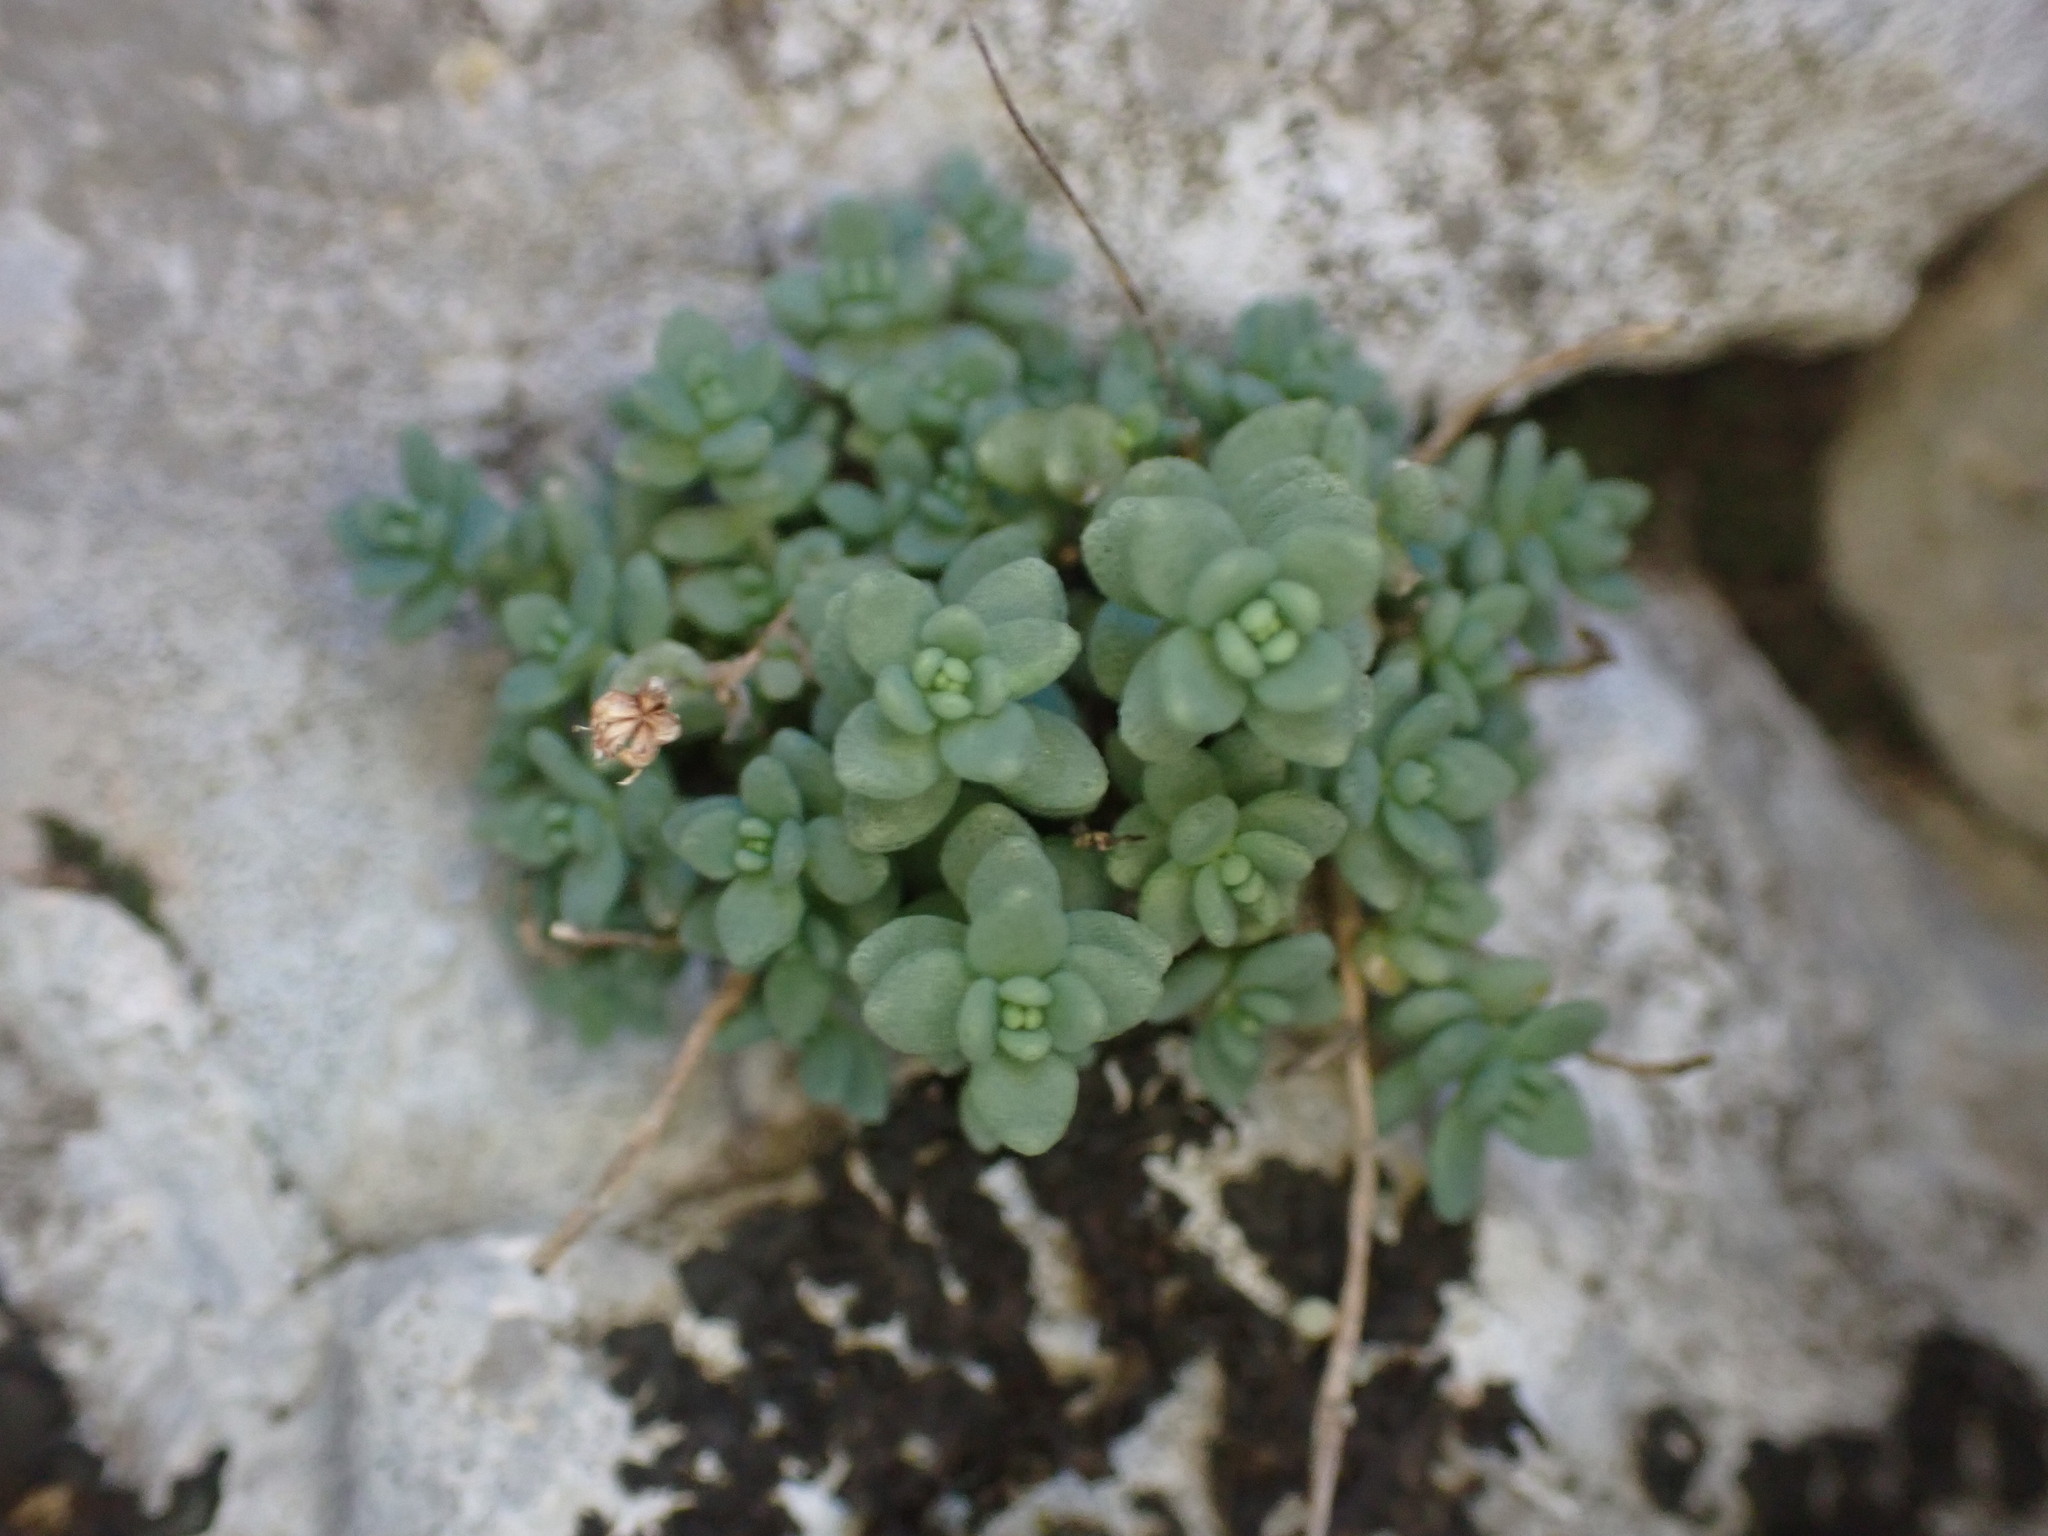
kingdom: Plantae
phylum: Tracheophyta
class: Magnoliopsida
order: Saxifragales
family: Crassulaceae
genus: Sedum
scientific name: Sedum dasyphyllum
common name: Thick-leaf stonecrop
